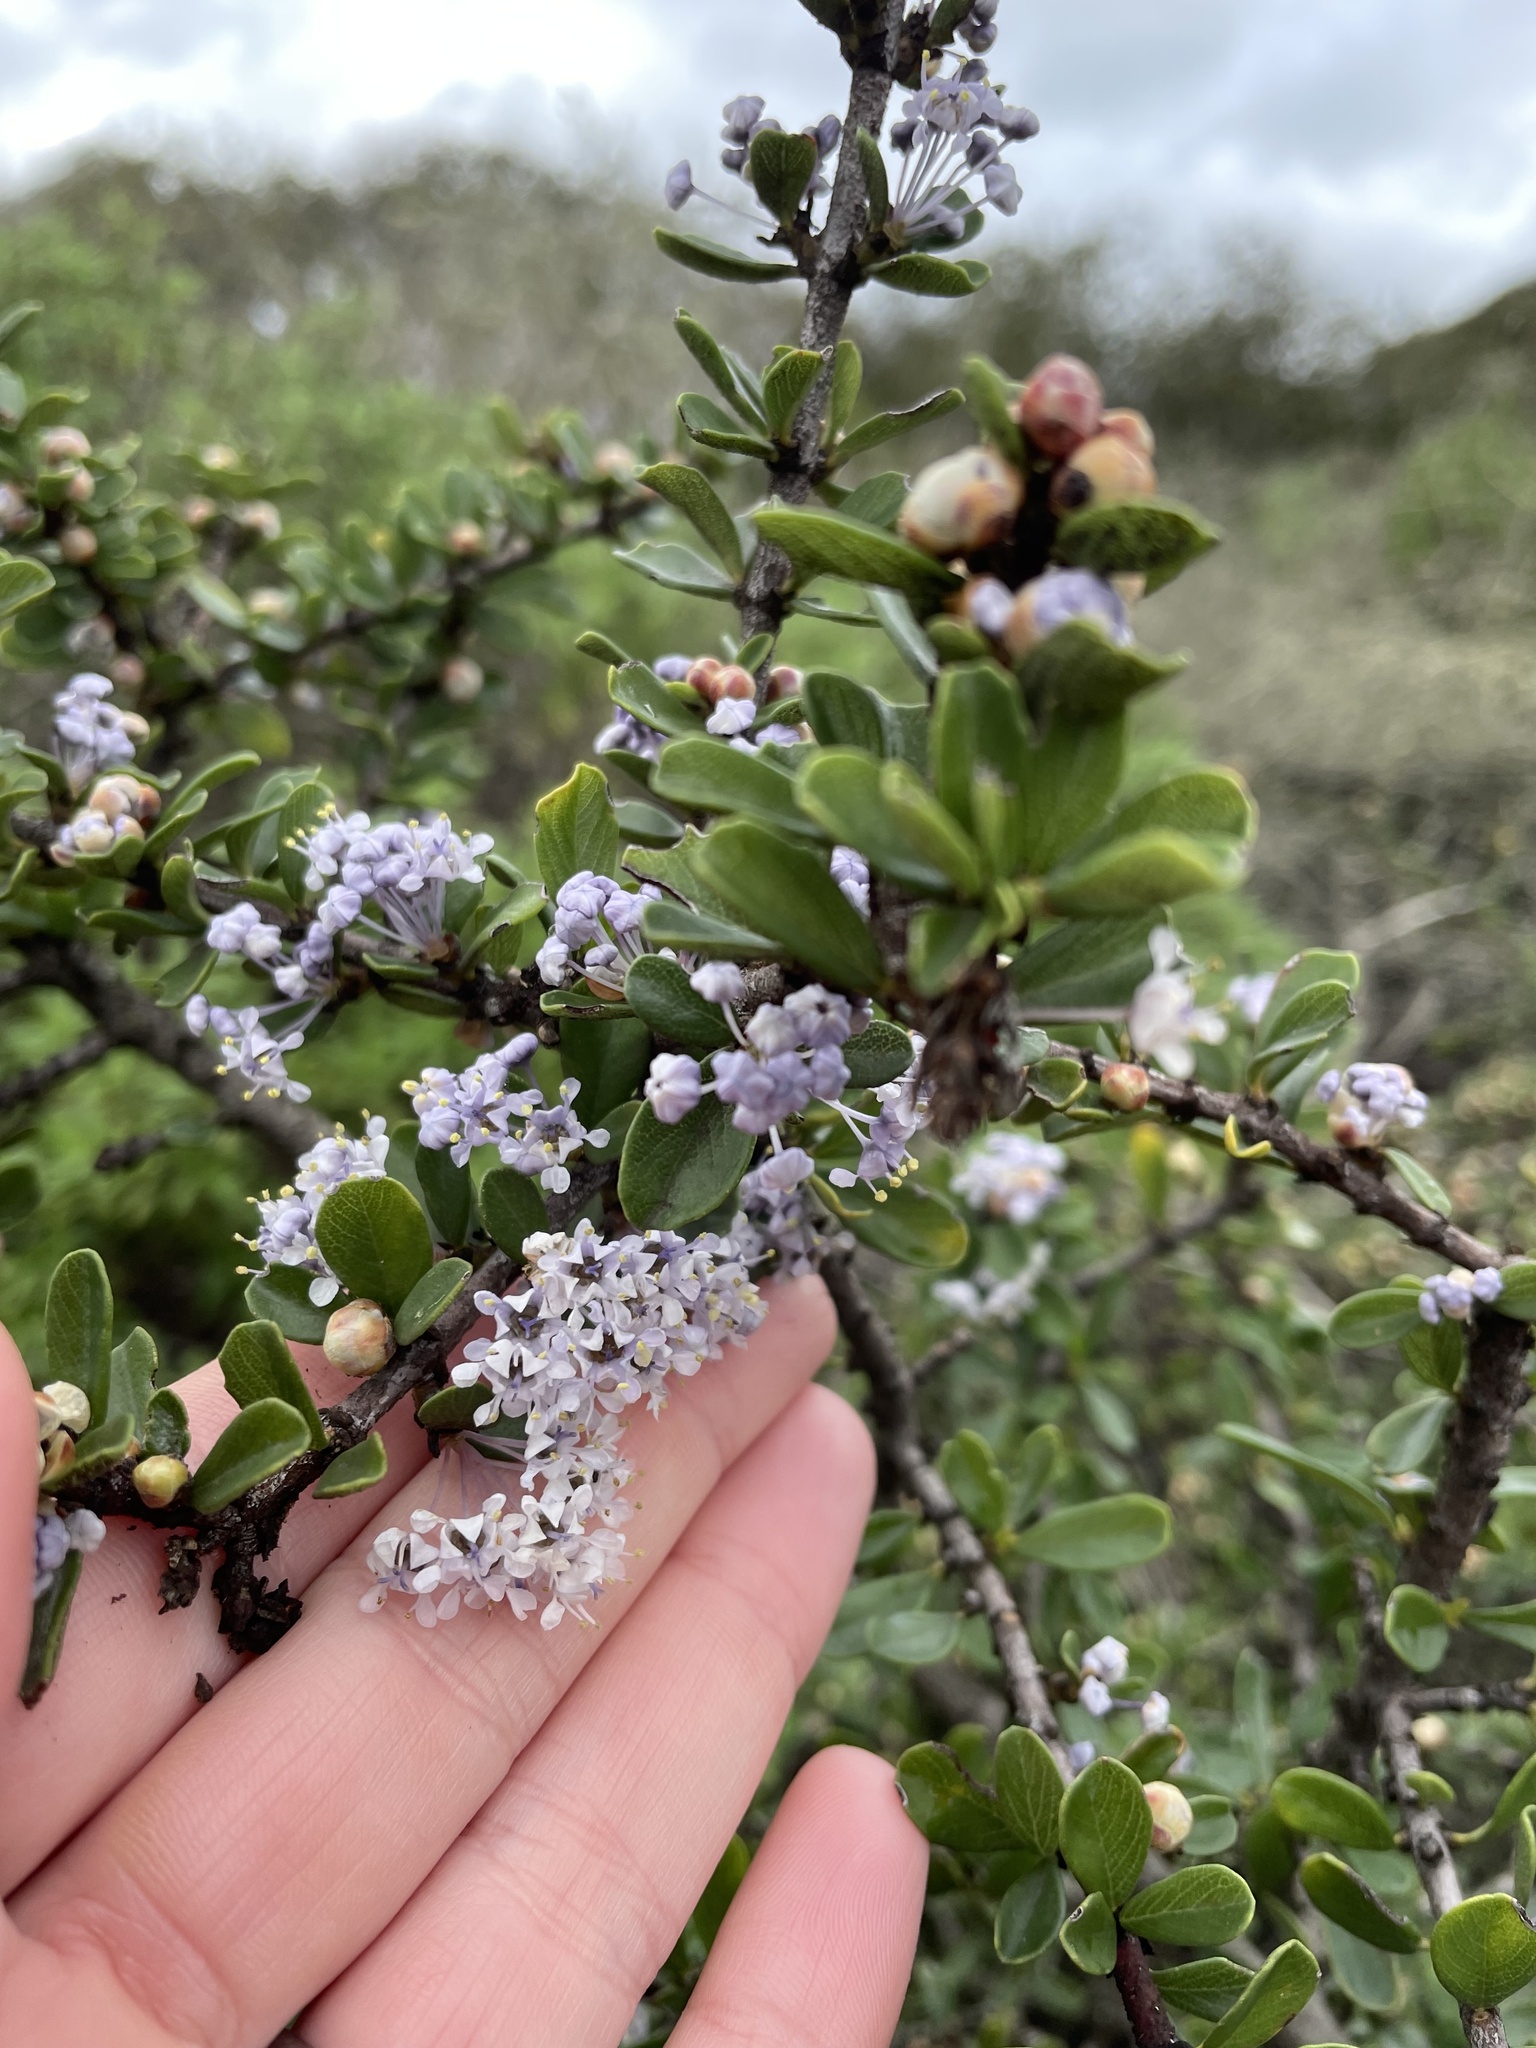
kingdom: Plantae
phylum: Tracheophyta
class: Magnoliopsida
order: Rosales
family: Rhamnaceae
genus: Ceanothus
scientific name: Ceanothus cuneatus
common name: Cuneate ceanothus
